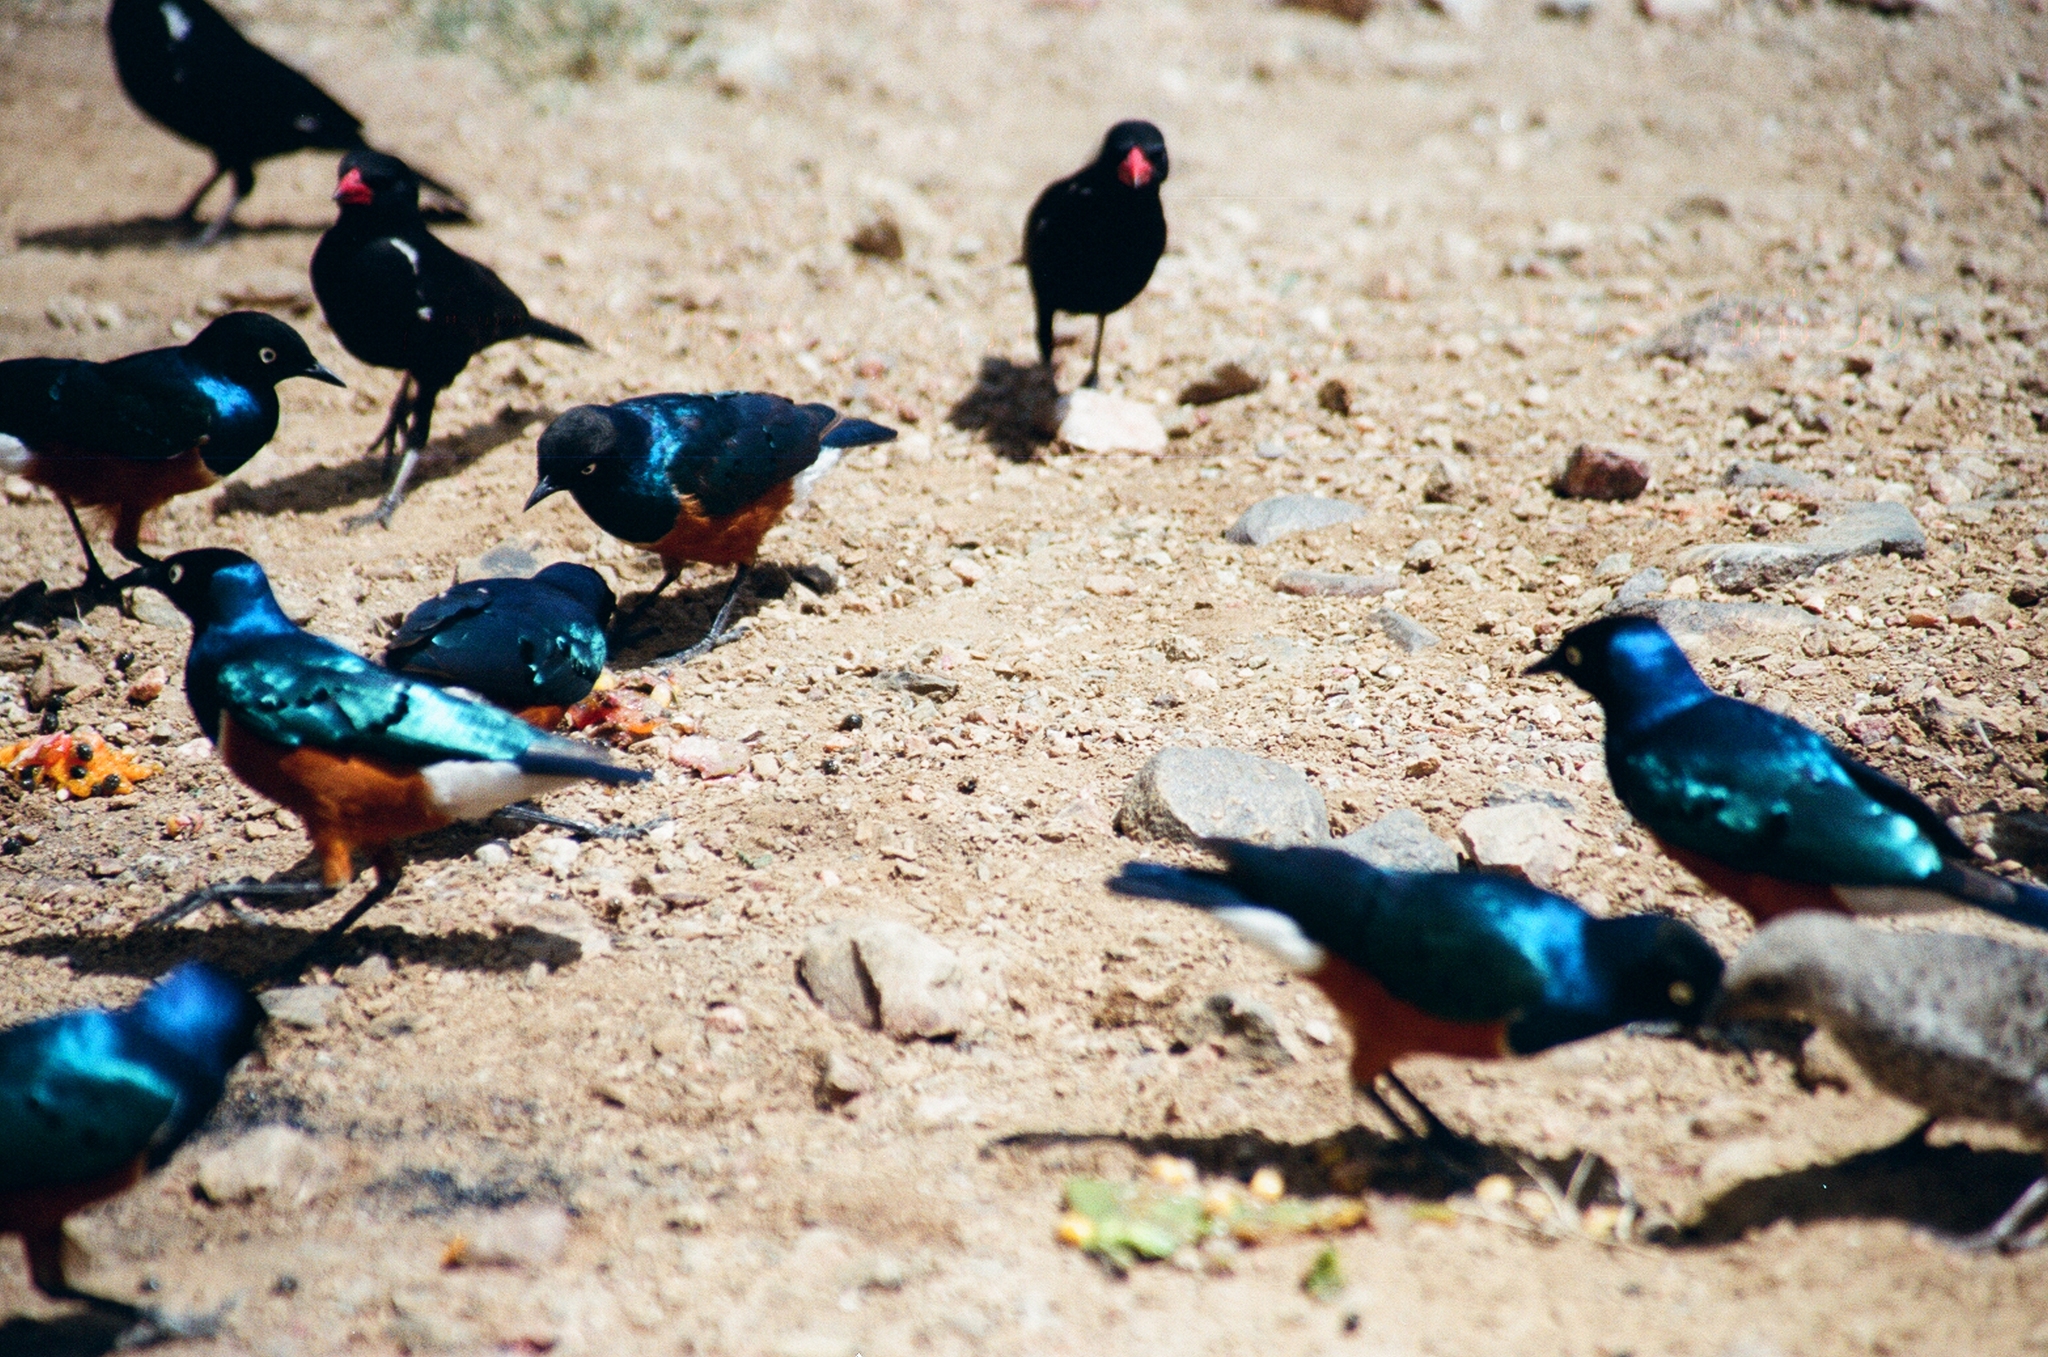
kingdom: Animalia
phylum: Chordata
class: Aves
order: Passeriformes
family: Sturnidae
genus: Lamprotornis
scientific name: Lamprotornis superbus
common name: Superb starling
